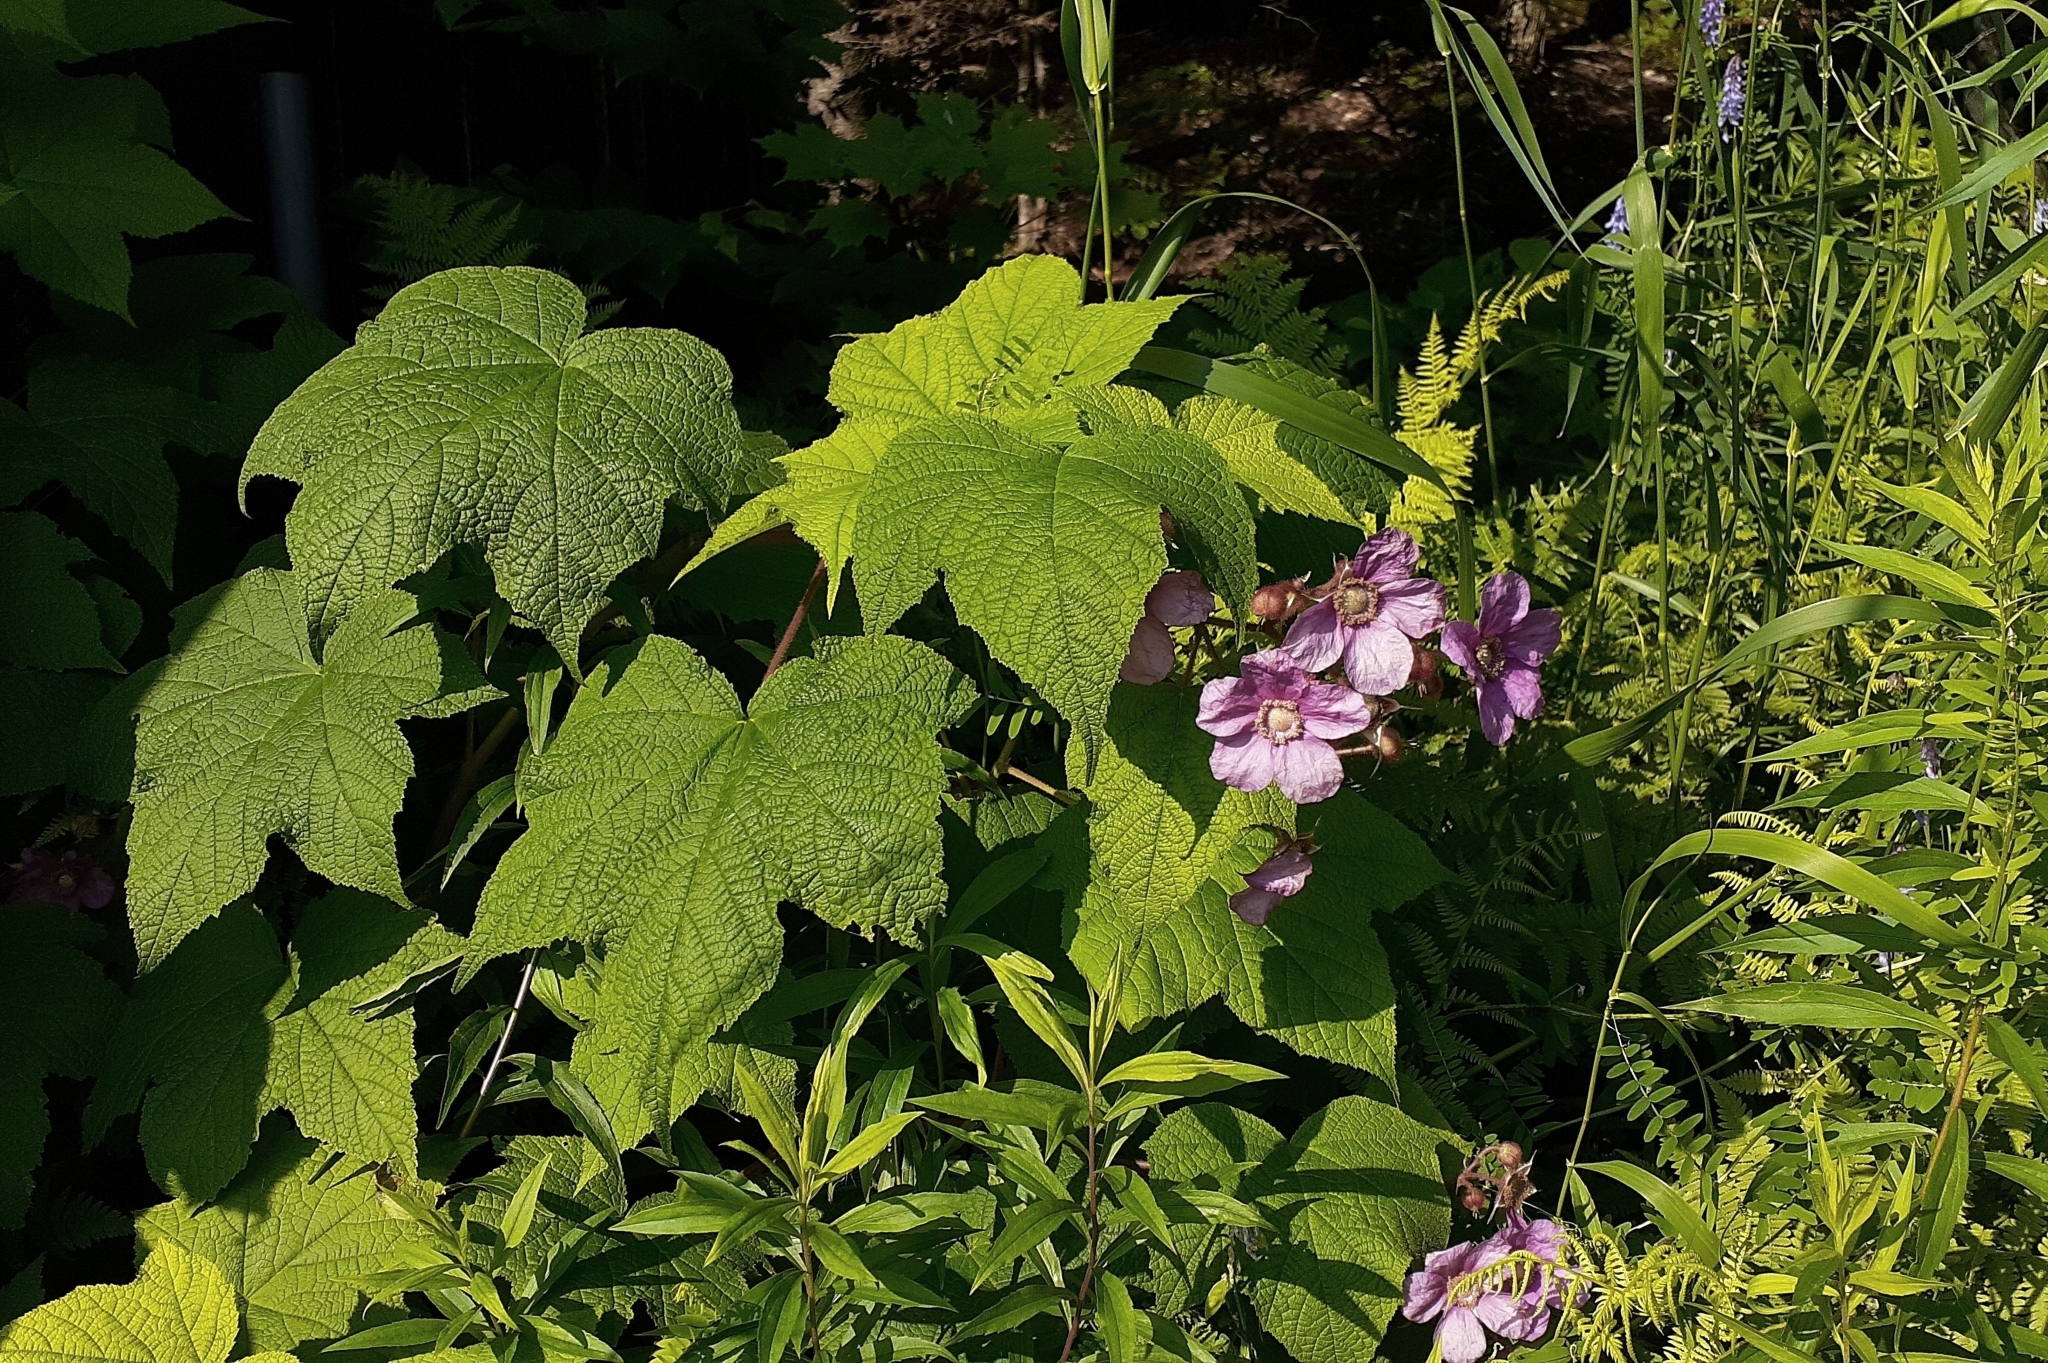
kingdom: Plantae
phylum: Tracheophyta
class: Magnoliopsida
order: Rosales
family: Rosaceae
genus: Rubus
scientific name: Rubus odoratus
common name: Purple-flowered raspberry
